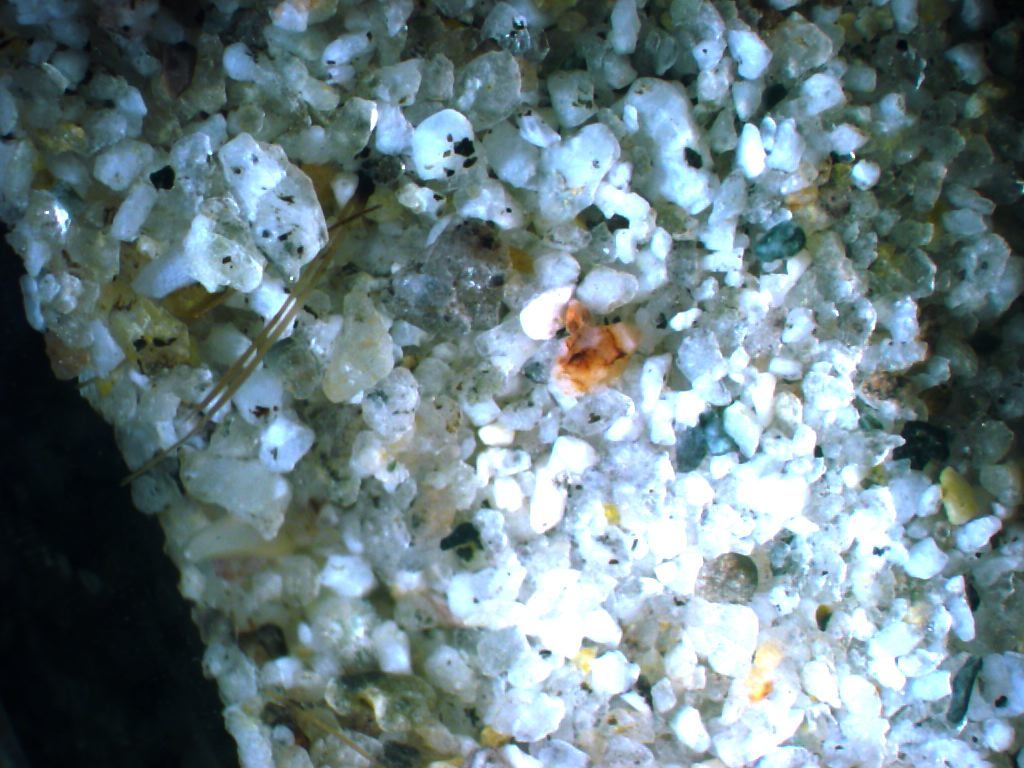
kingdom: Animalia
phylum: Mollusca
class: Bivalvia
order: Cardiida
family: Donacidae
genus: Donax
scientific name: Donax venustus
